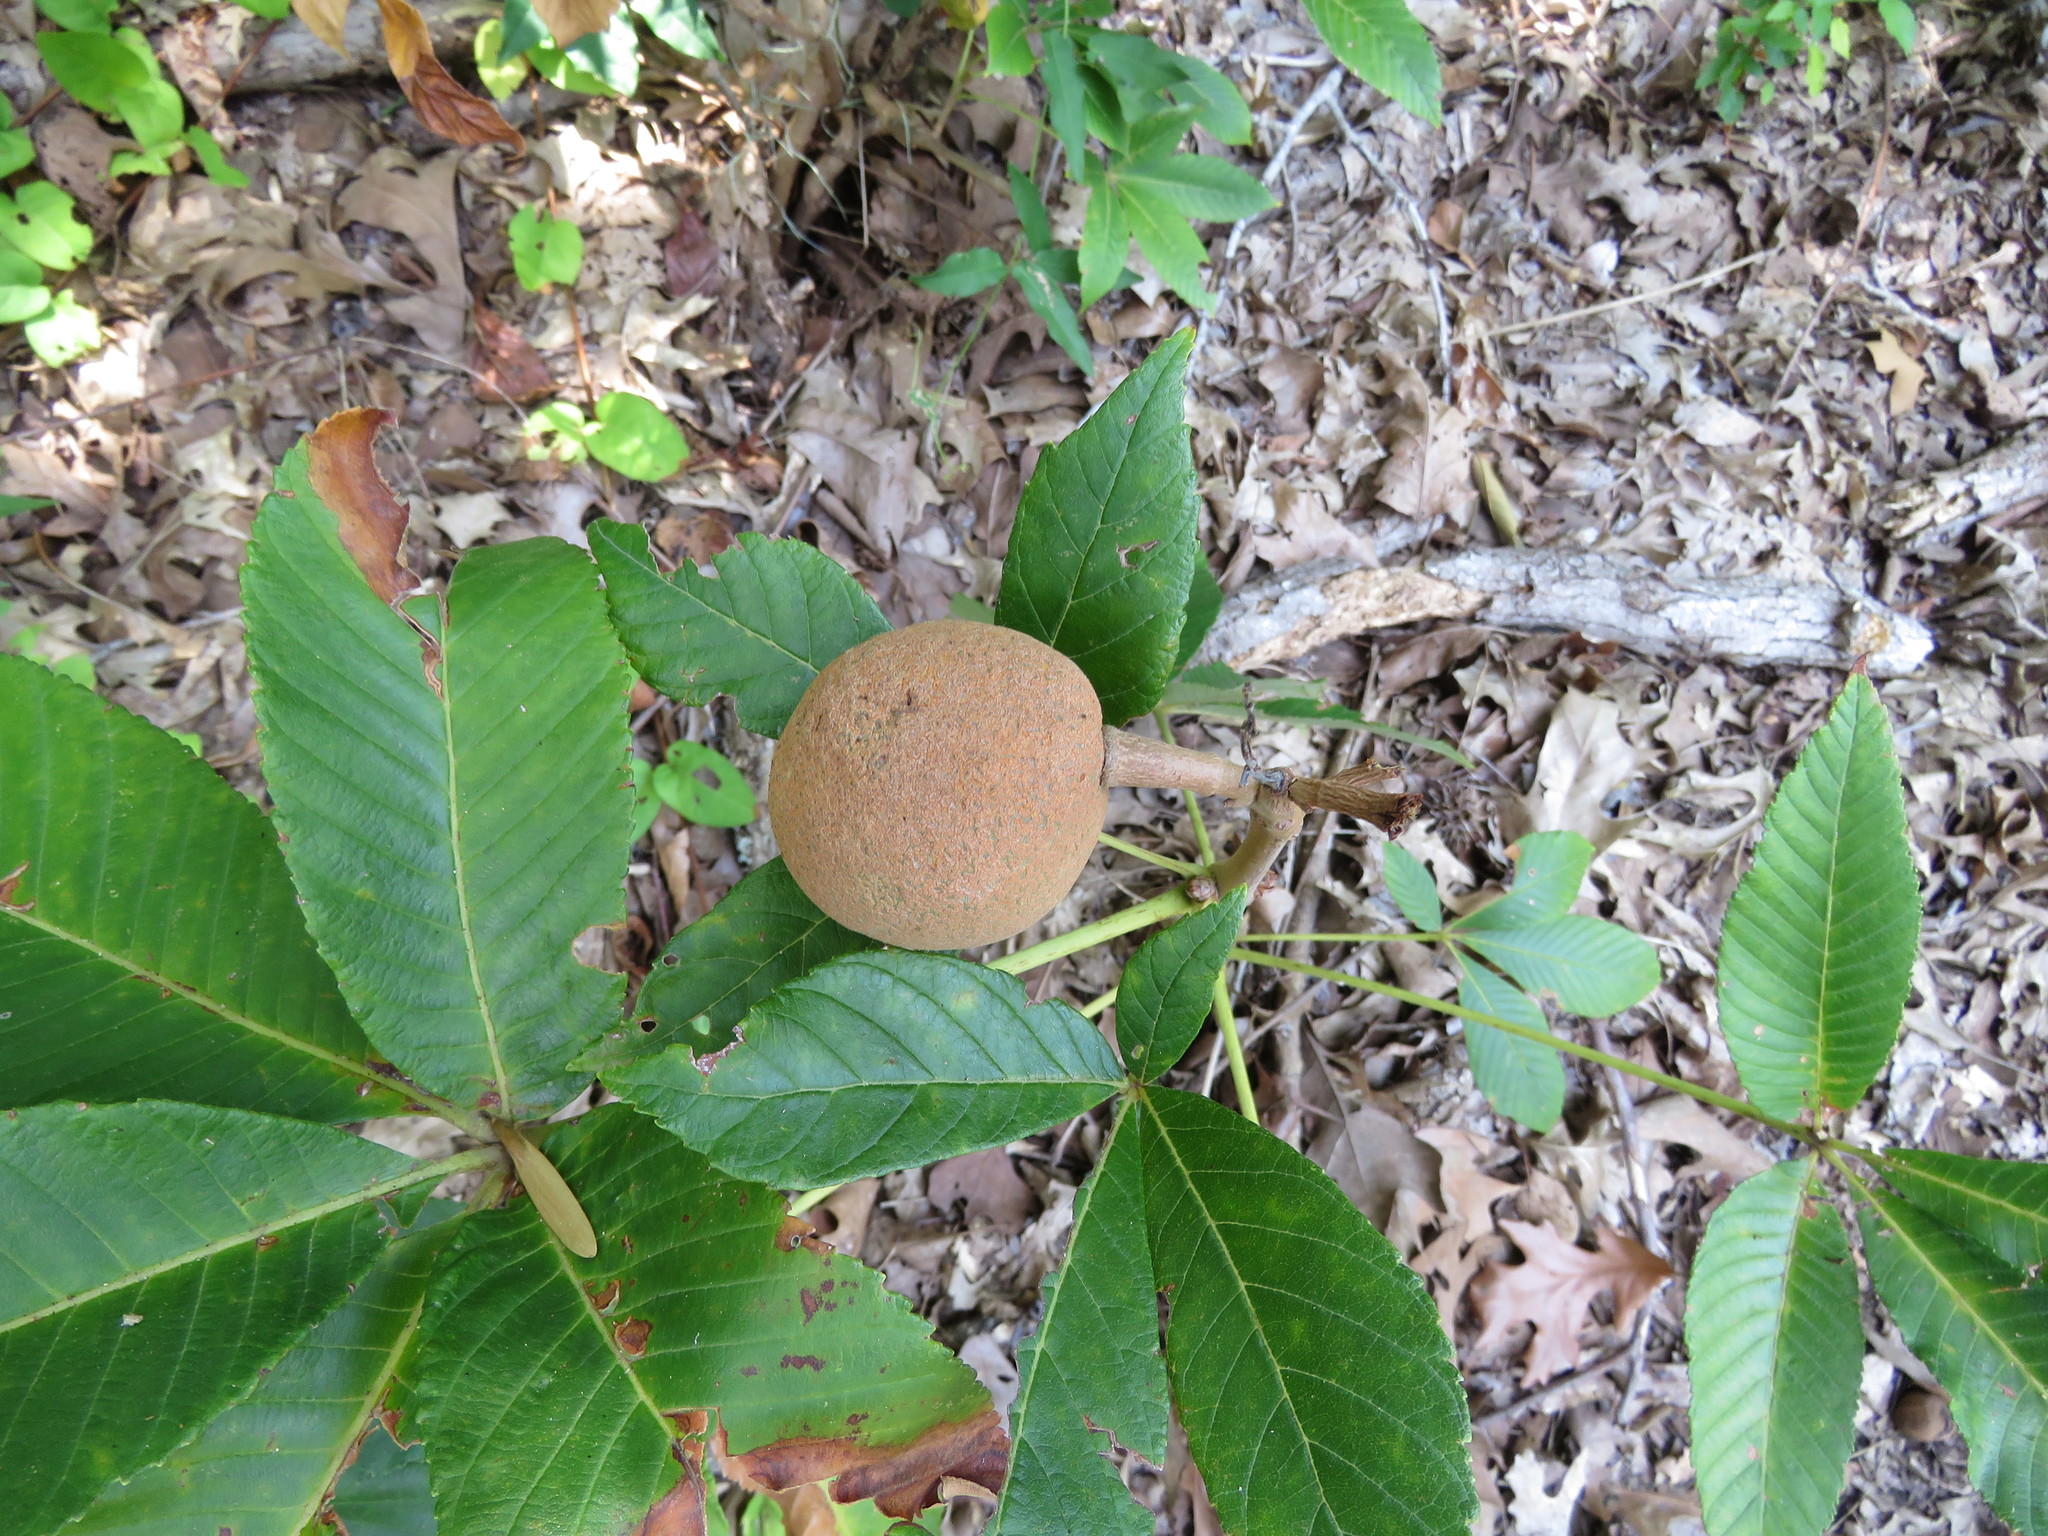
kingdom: Plantae
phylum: Tracheophyta
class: Magnoliopsida
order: Sapindales
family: Sapindaceae
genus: Aesculus
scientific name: Aesculus pavia
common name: Red buckeye
